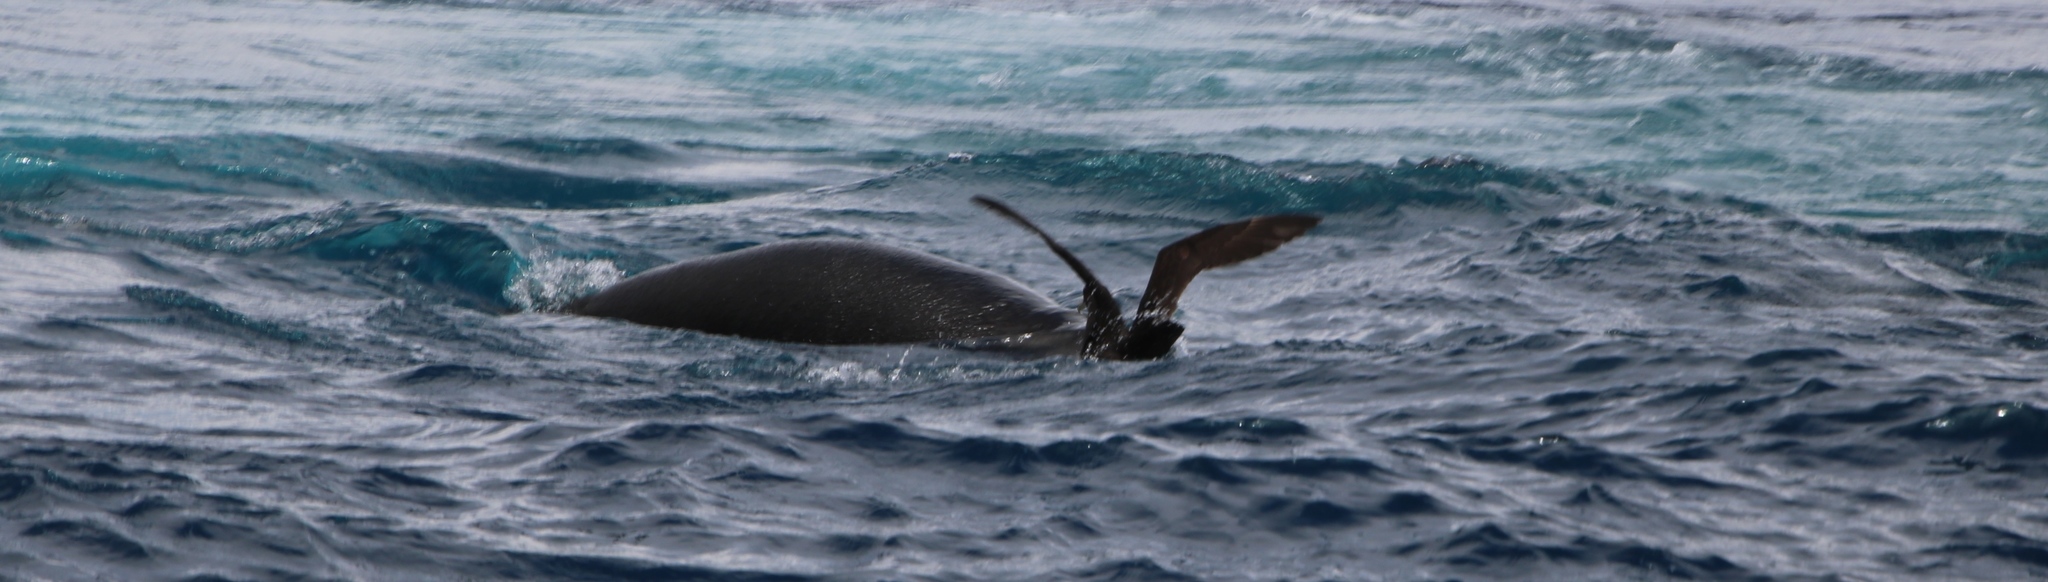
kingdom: Animalia
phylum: Chordata
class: Mammalia
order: Carnivora
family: Otariidae
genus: Arctocephalus
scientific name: Arctocephalus pusillus
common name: Brown fur seal
